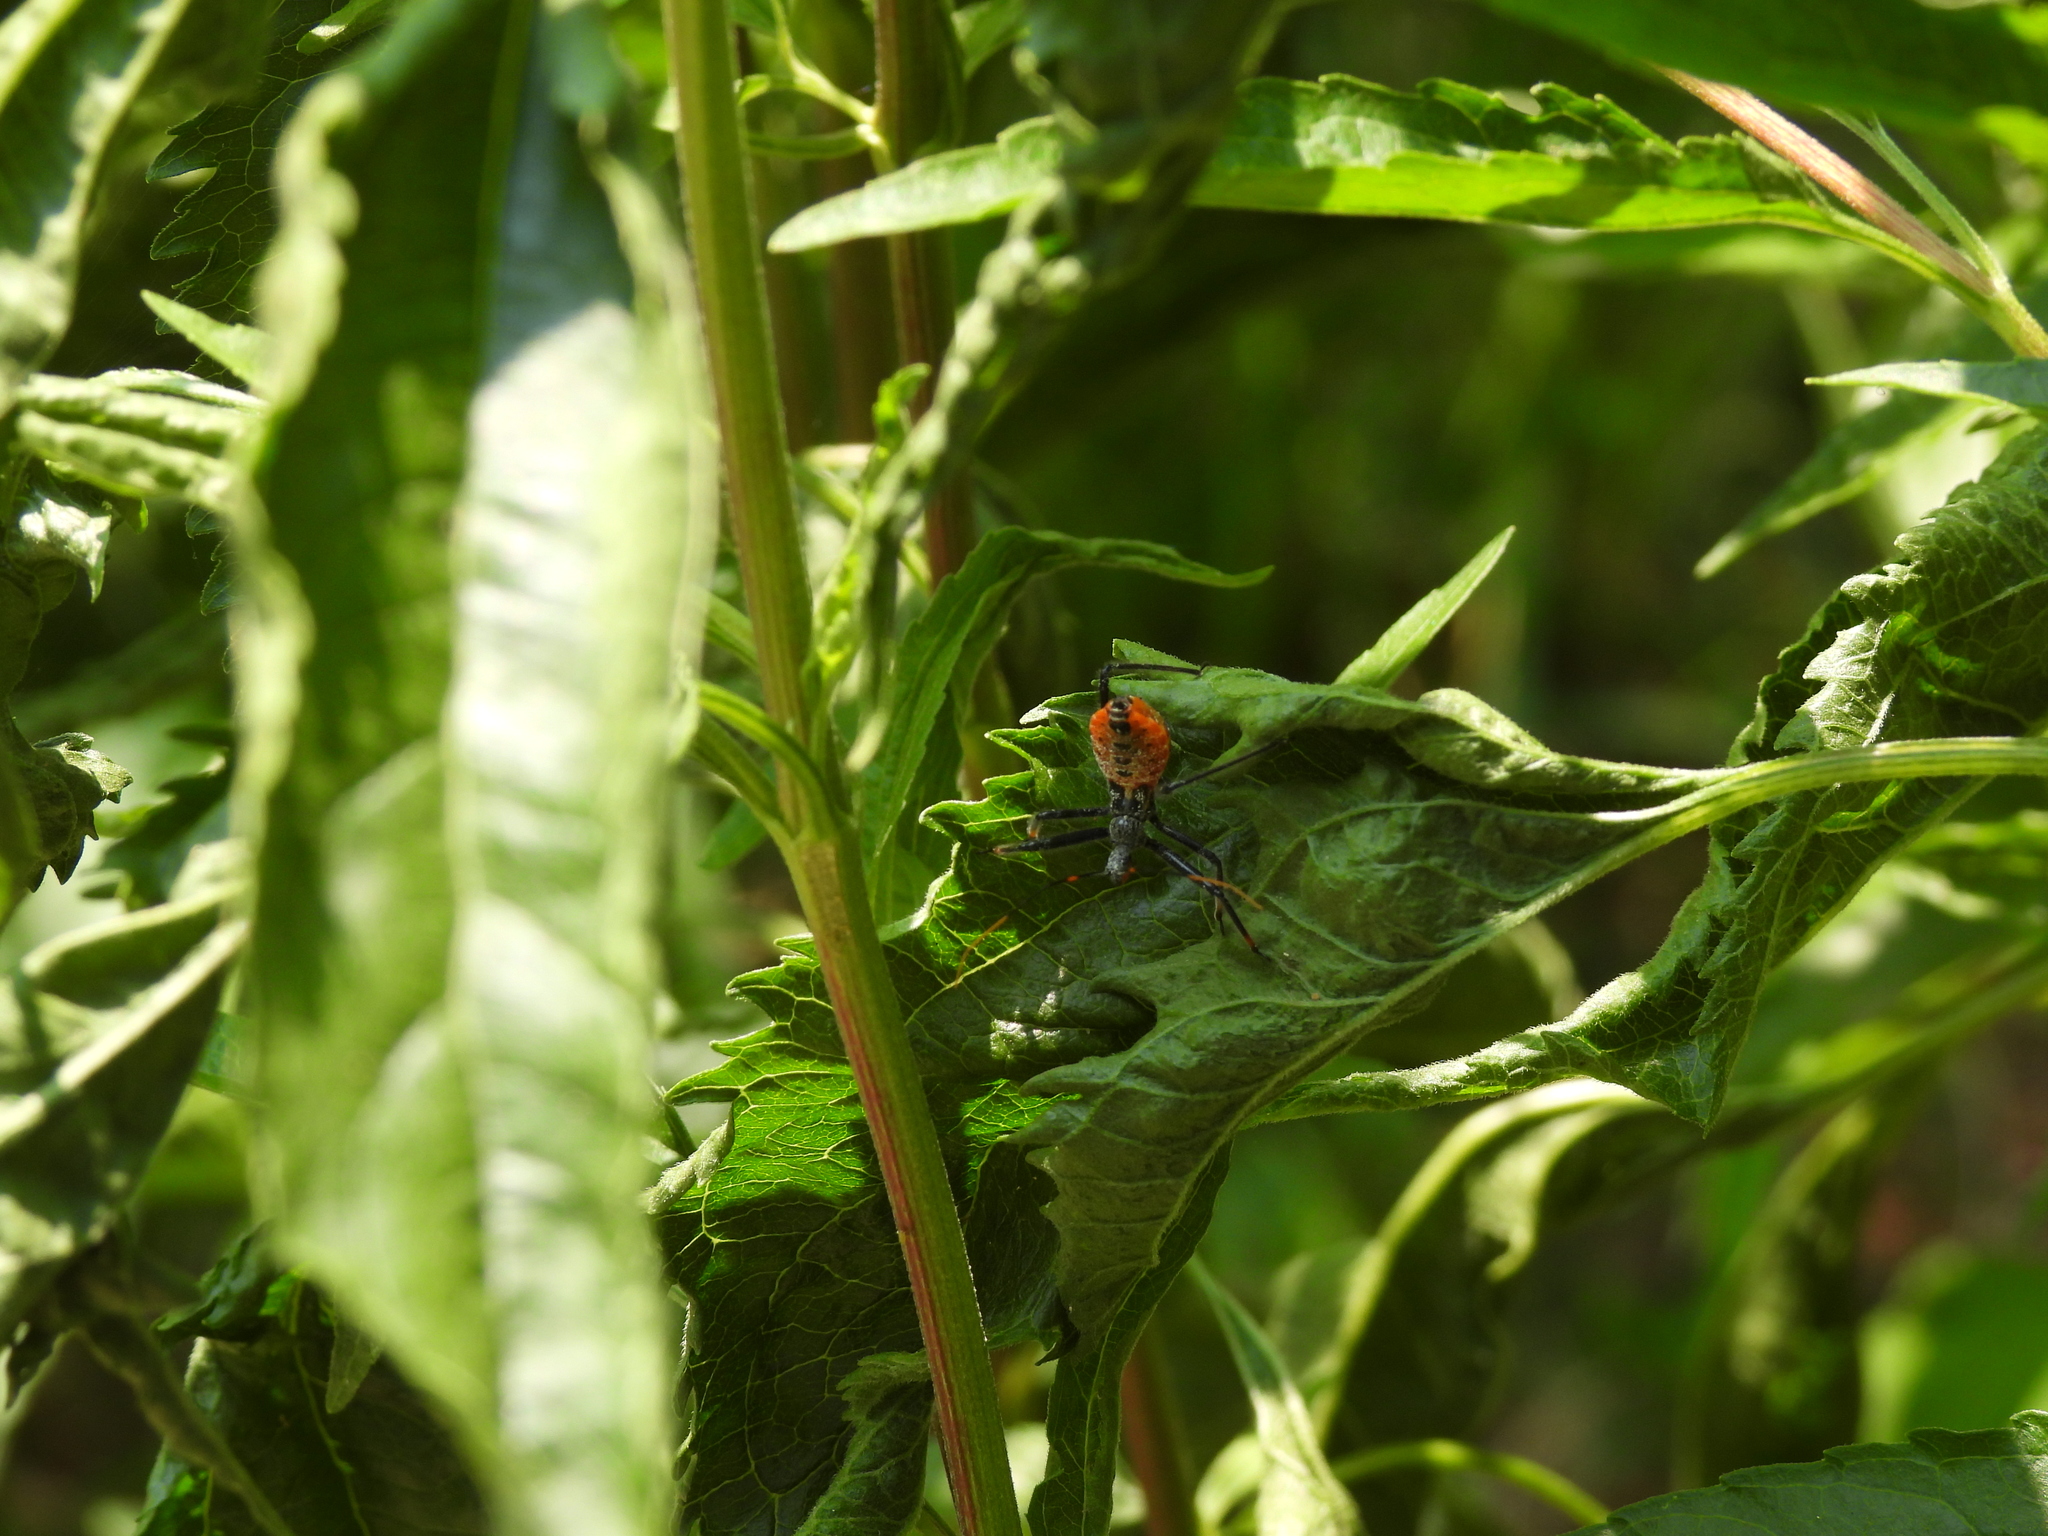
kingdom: Animalia
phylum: Arthropoda
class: Insecta
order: Hemiptera
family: Reduviidae
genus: Arilus
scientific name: Arilus cristatus
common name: North american wheel bug
